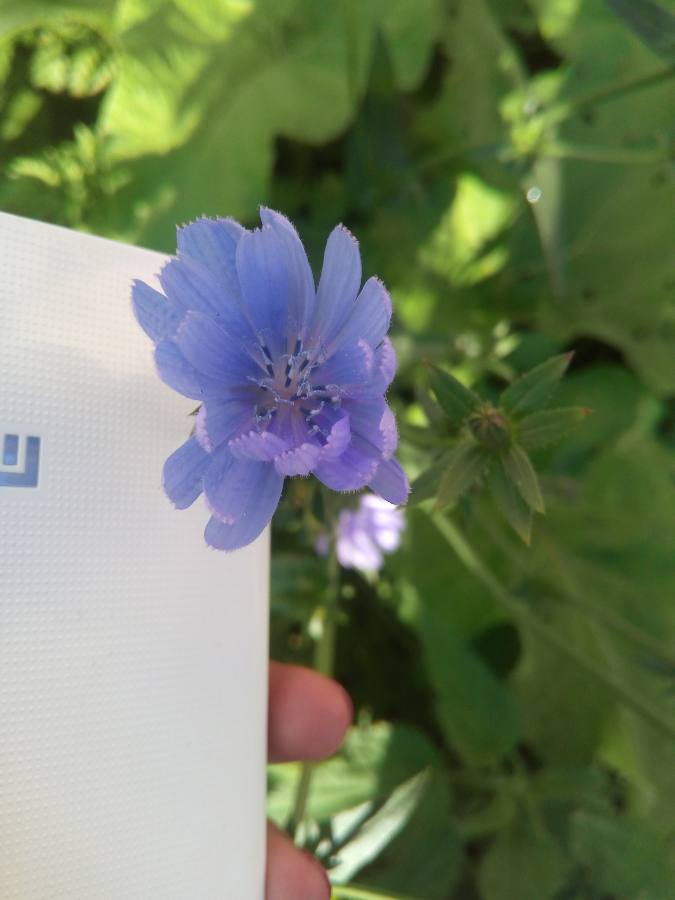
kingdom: Plantae
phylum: Tracheophyta
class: Magnoliopsida
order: Asterales
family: Asteraceae
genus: Cichorium
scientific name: Cichorium intybus
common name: Chicory
